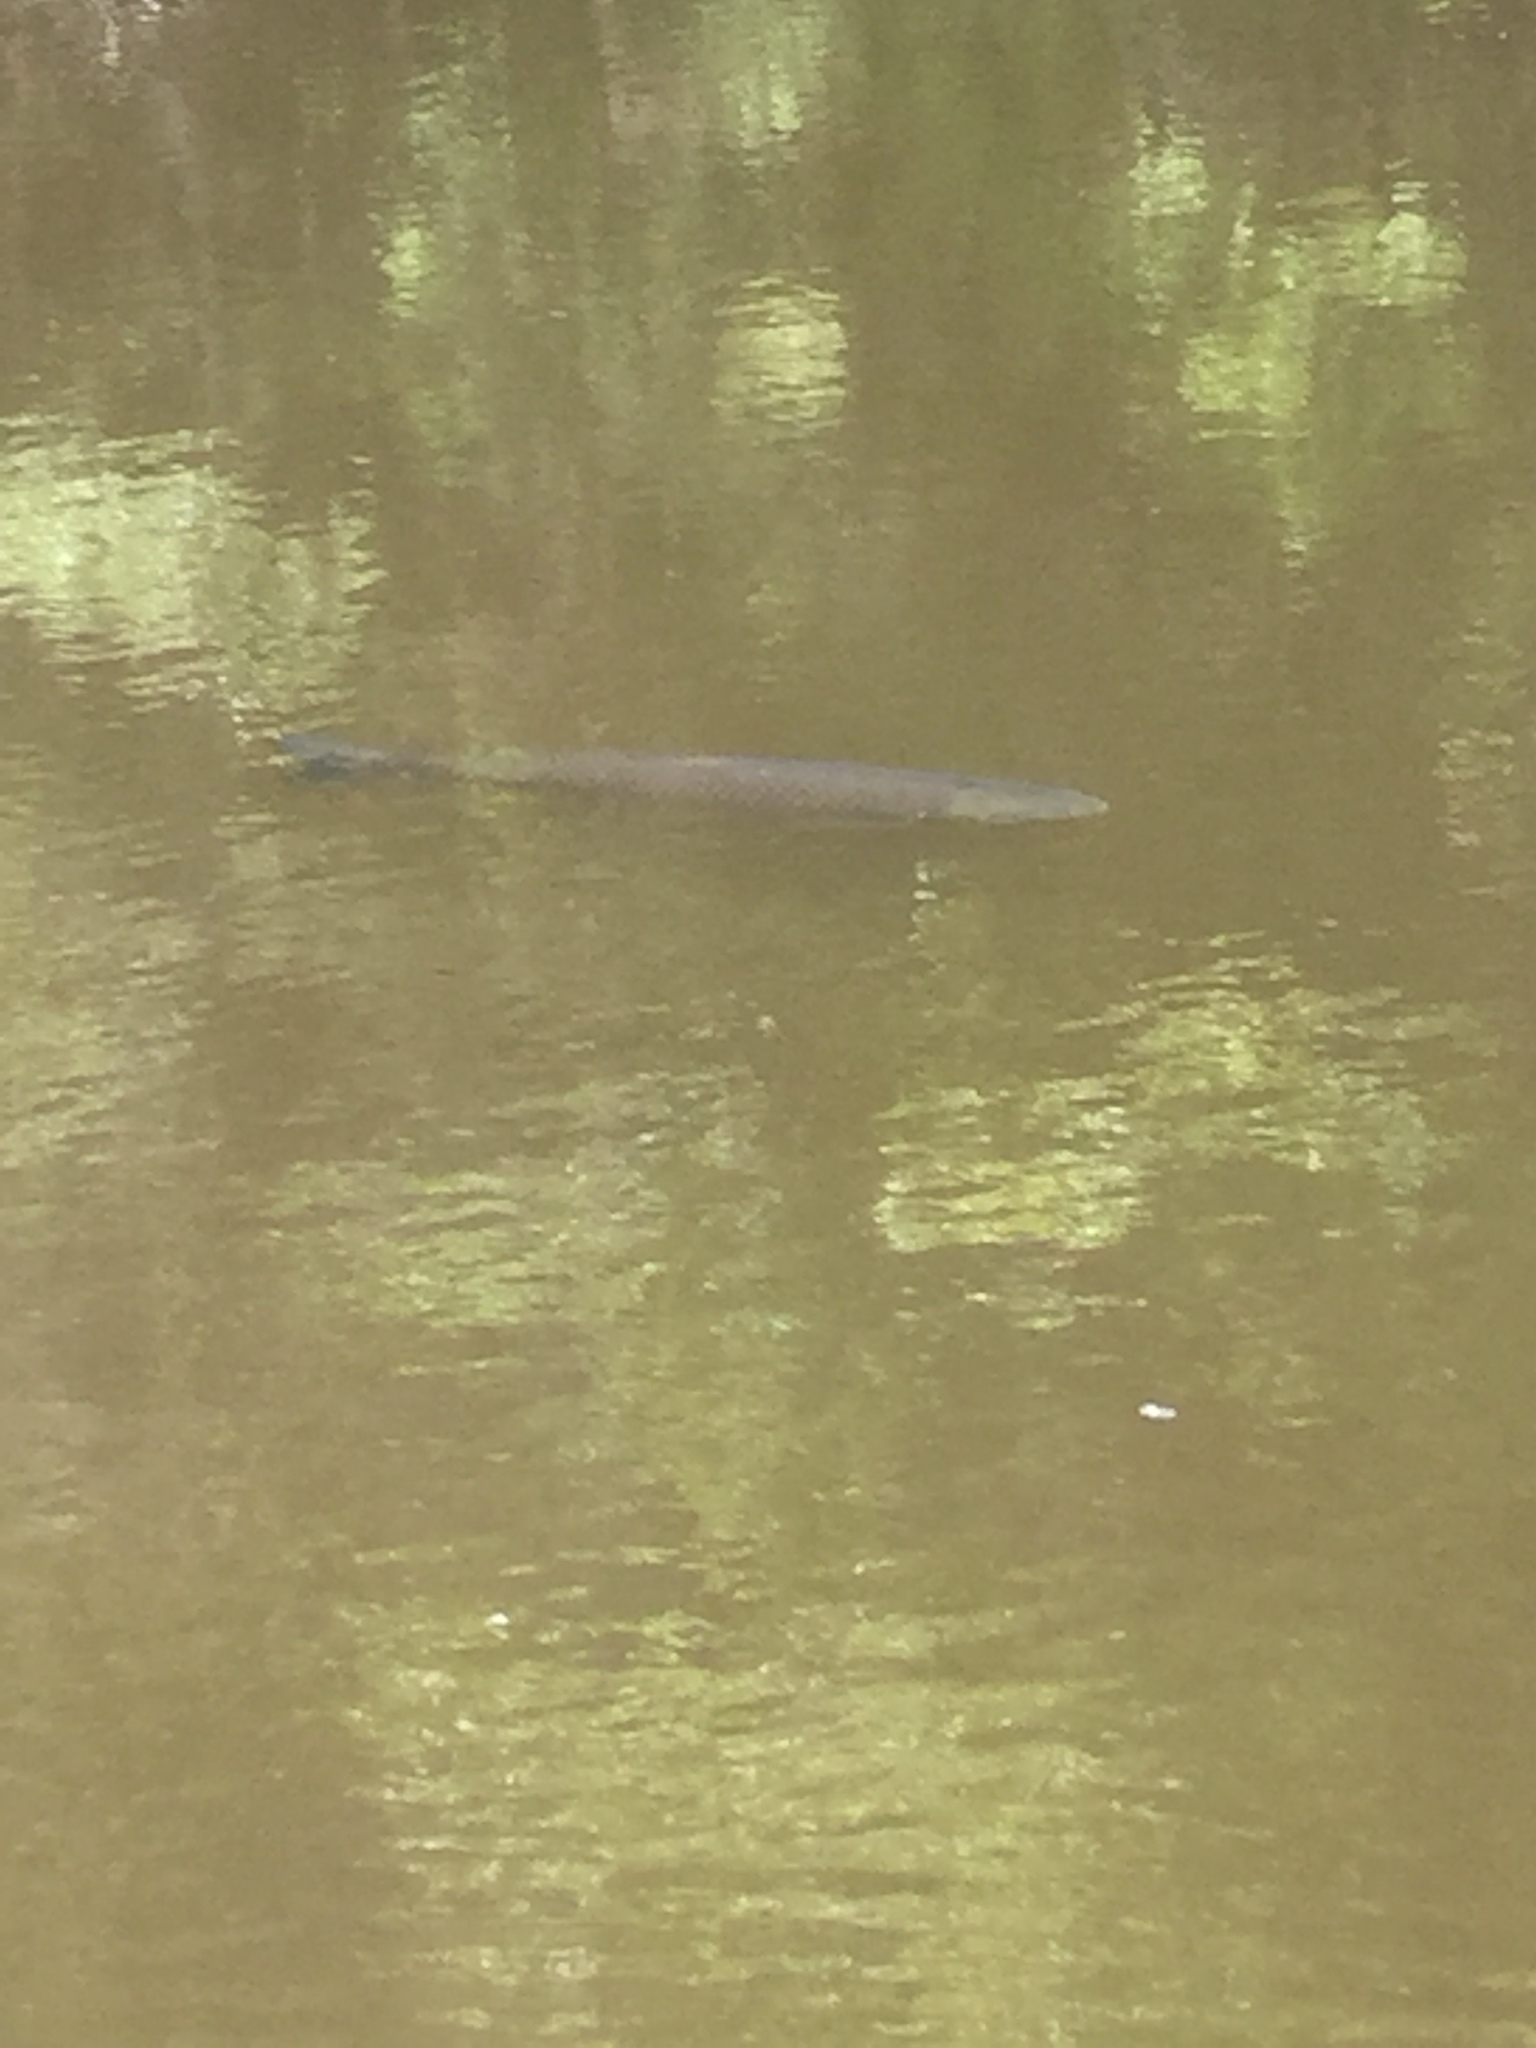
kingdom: Animalia
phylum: Chordata
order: Cypriniformes
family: Cyprinidae
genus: Ctenopharyngodon
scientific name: Ctenopharyngodon idella
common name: Grass carp
